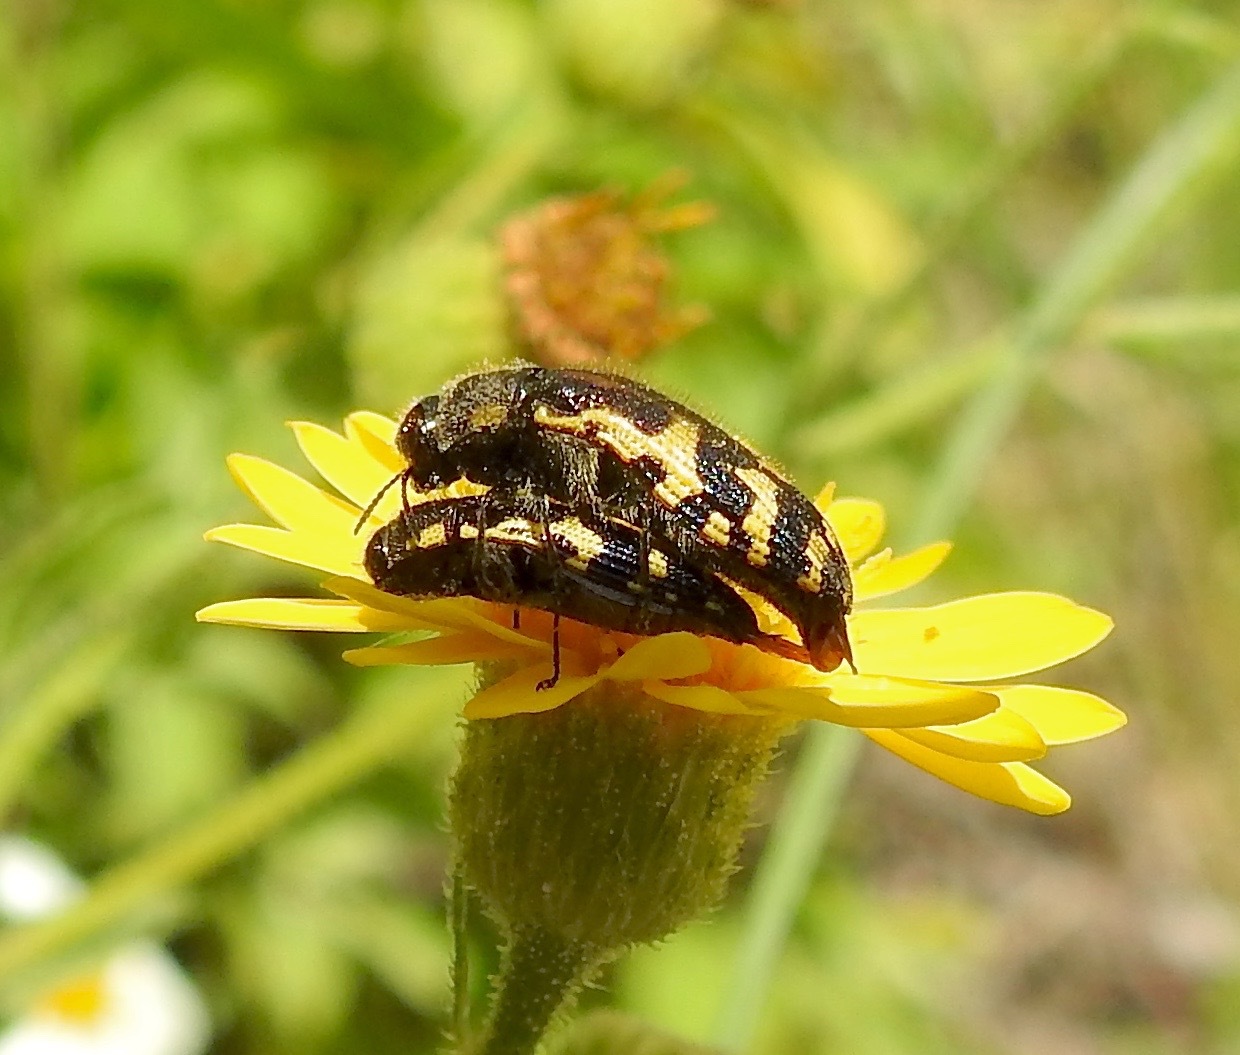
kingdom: Animalia
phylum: Arthropoda
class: Insecta
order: Coleoptera
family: Buprestidae
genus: Acmaeodera
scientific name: Acmaeodera pulchella
